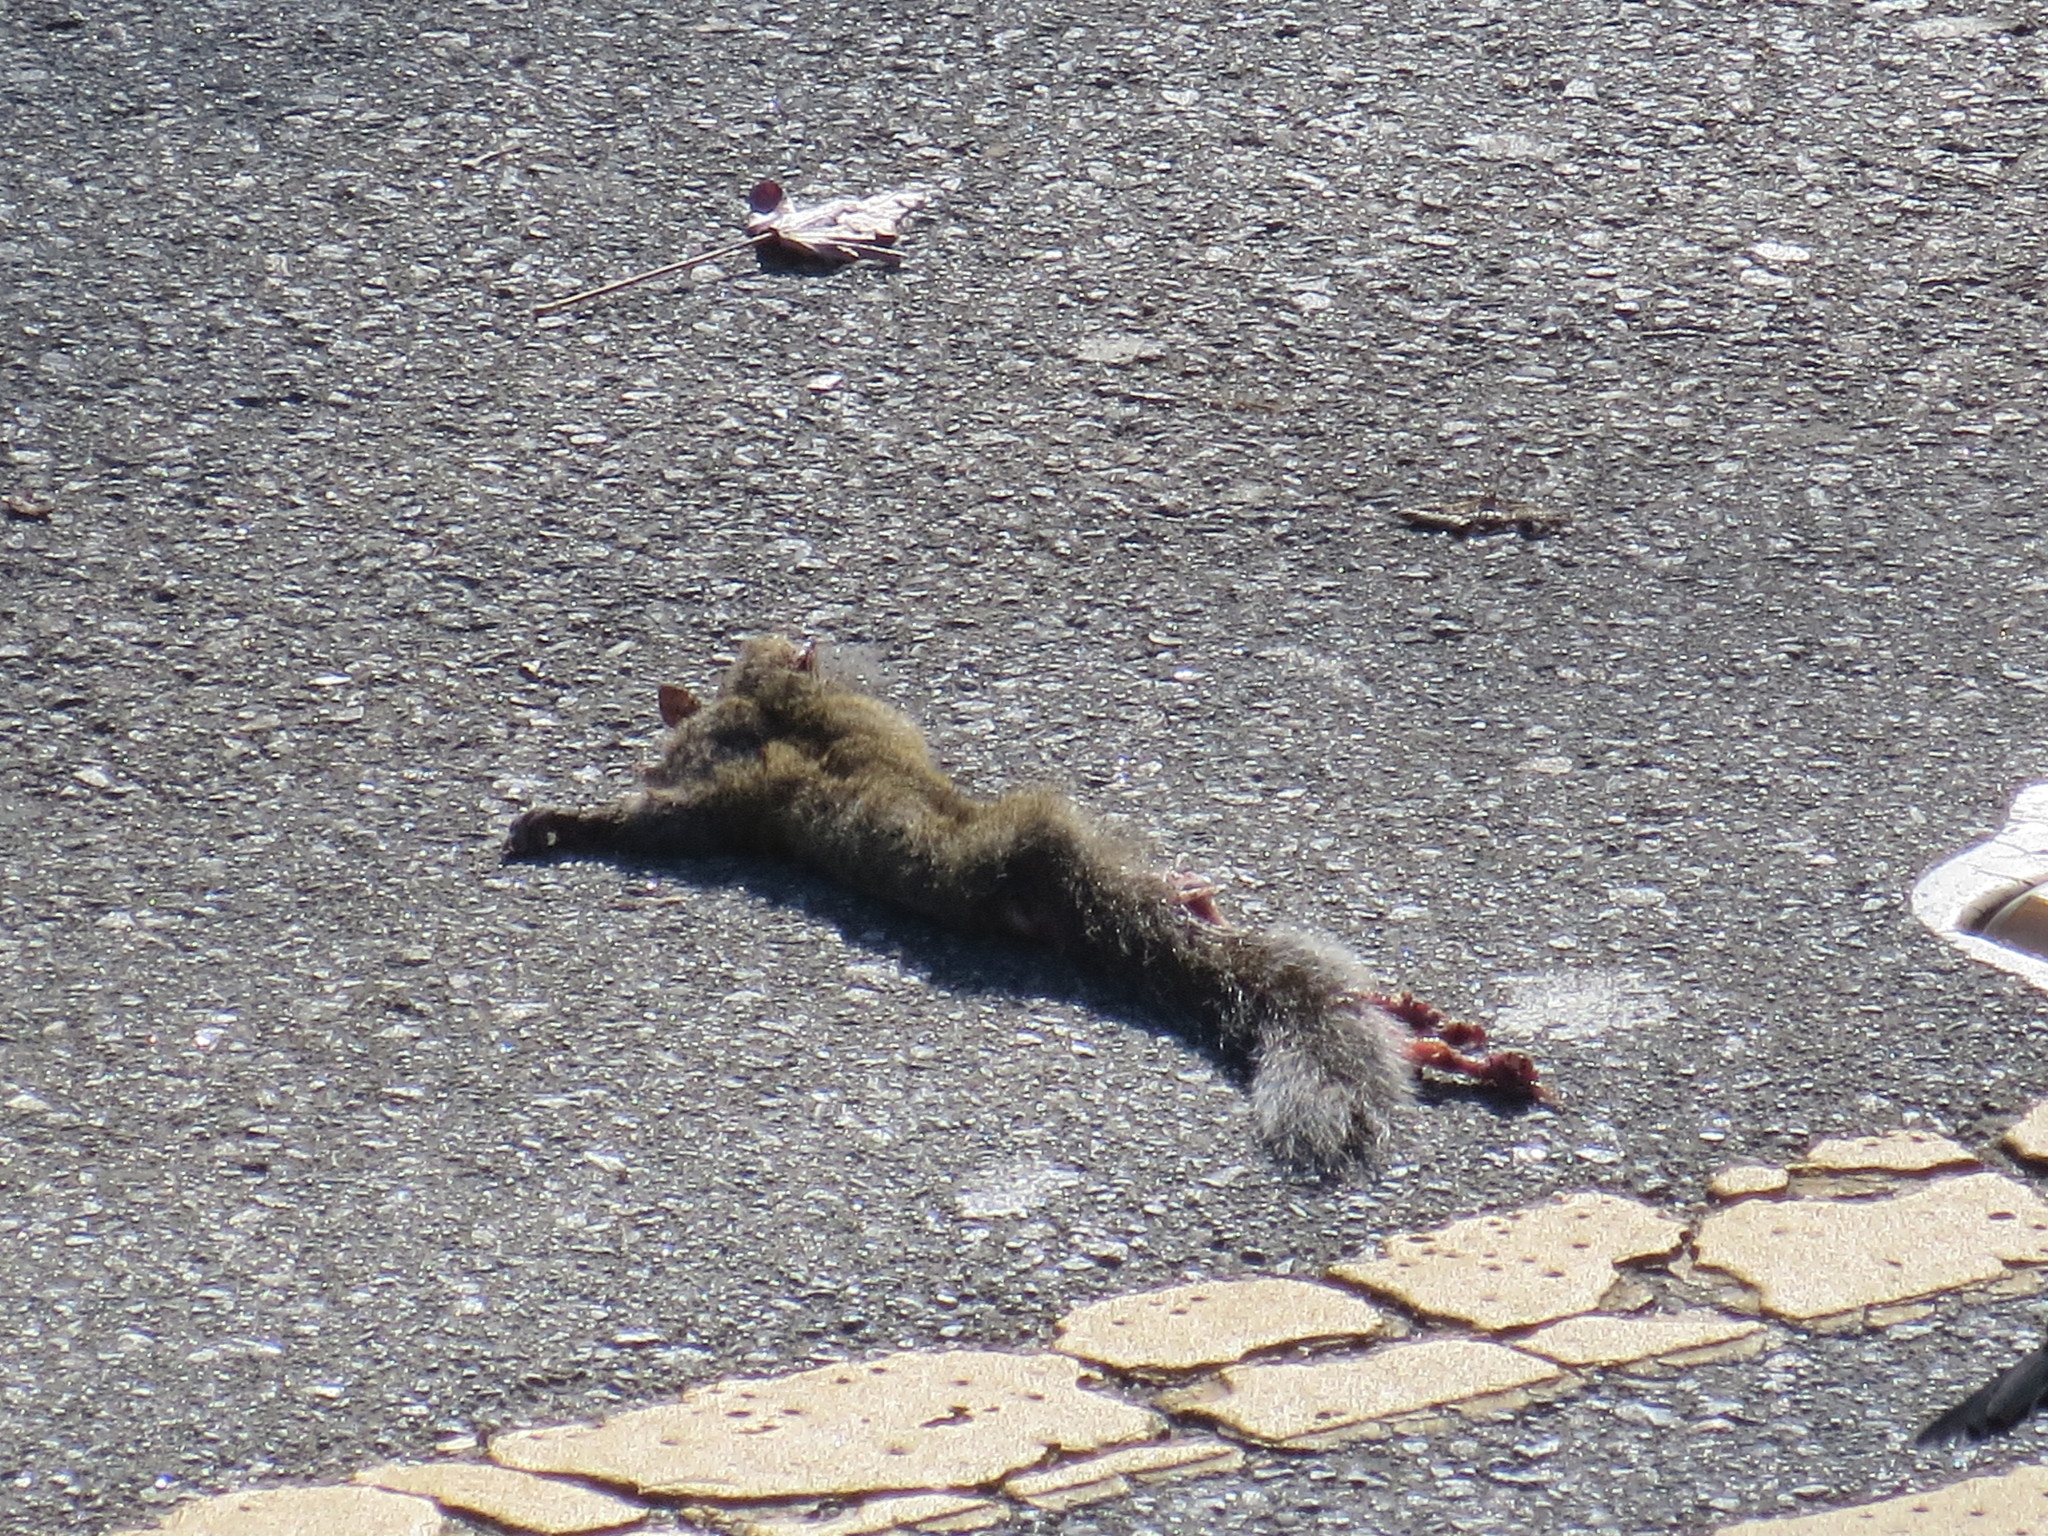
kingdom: Animalia
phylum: Chordata
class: Mammalia
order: Rodentia
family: Sciuridae
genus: Sciurus
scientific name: Sciurus carolinensis
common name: Eastern gray squirrel
